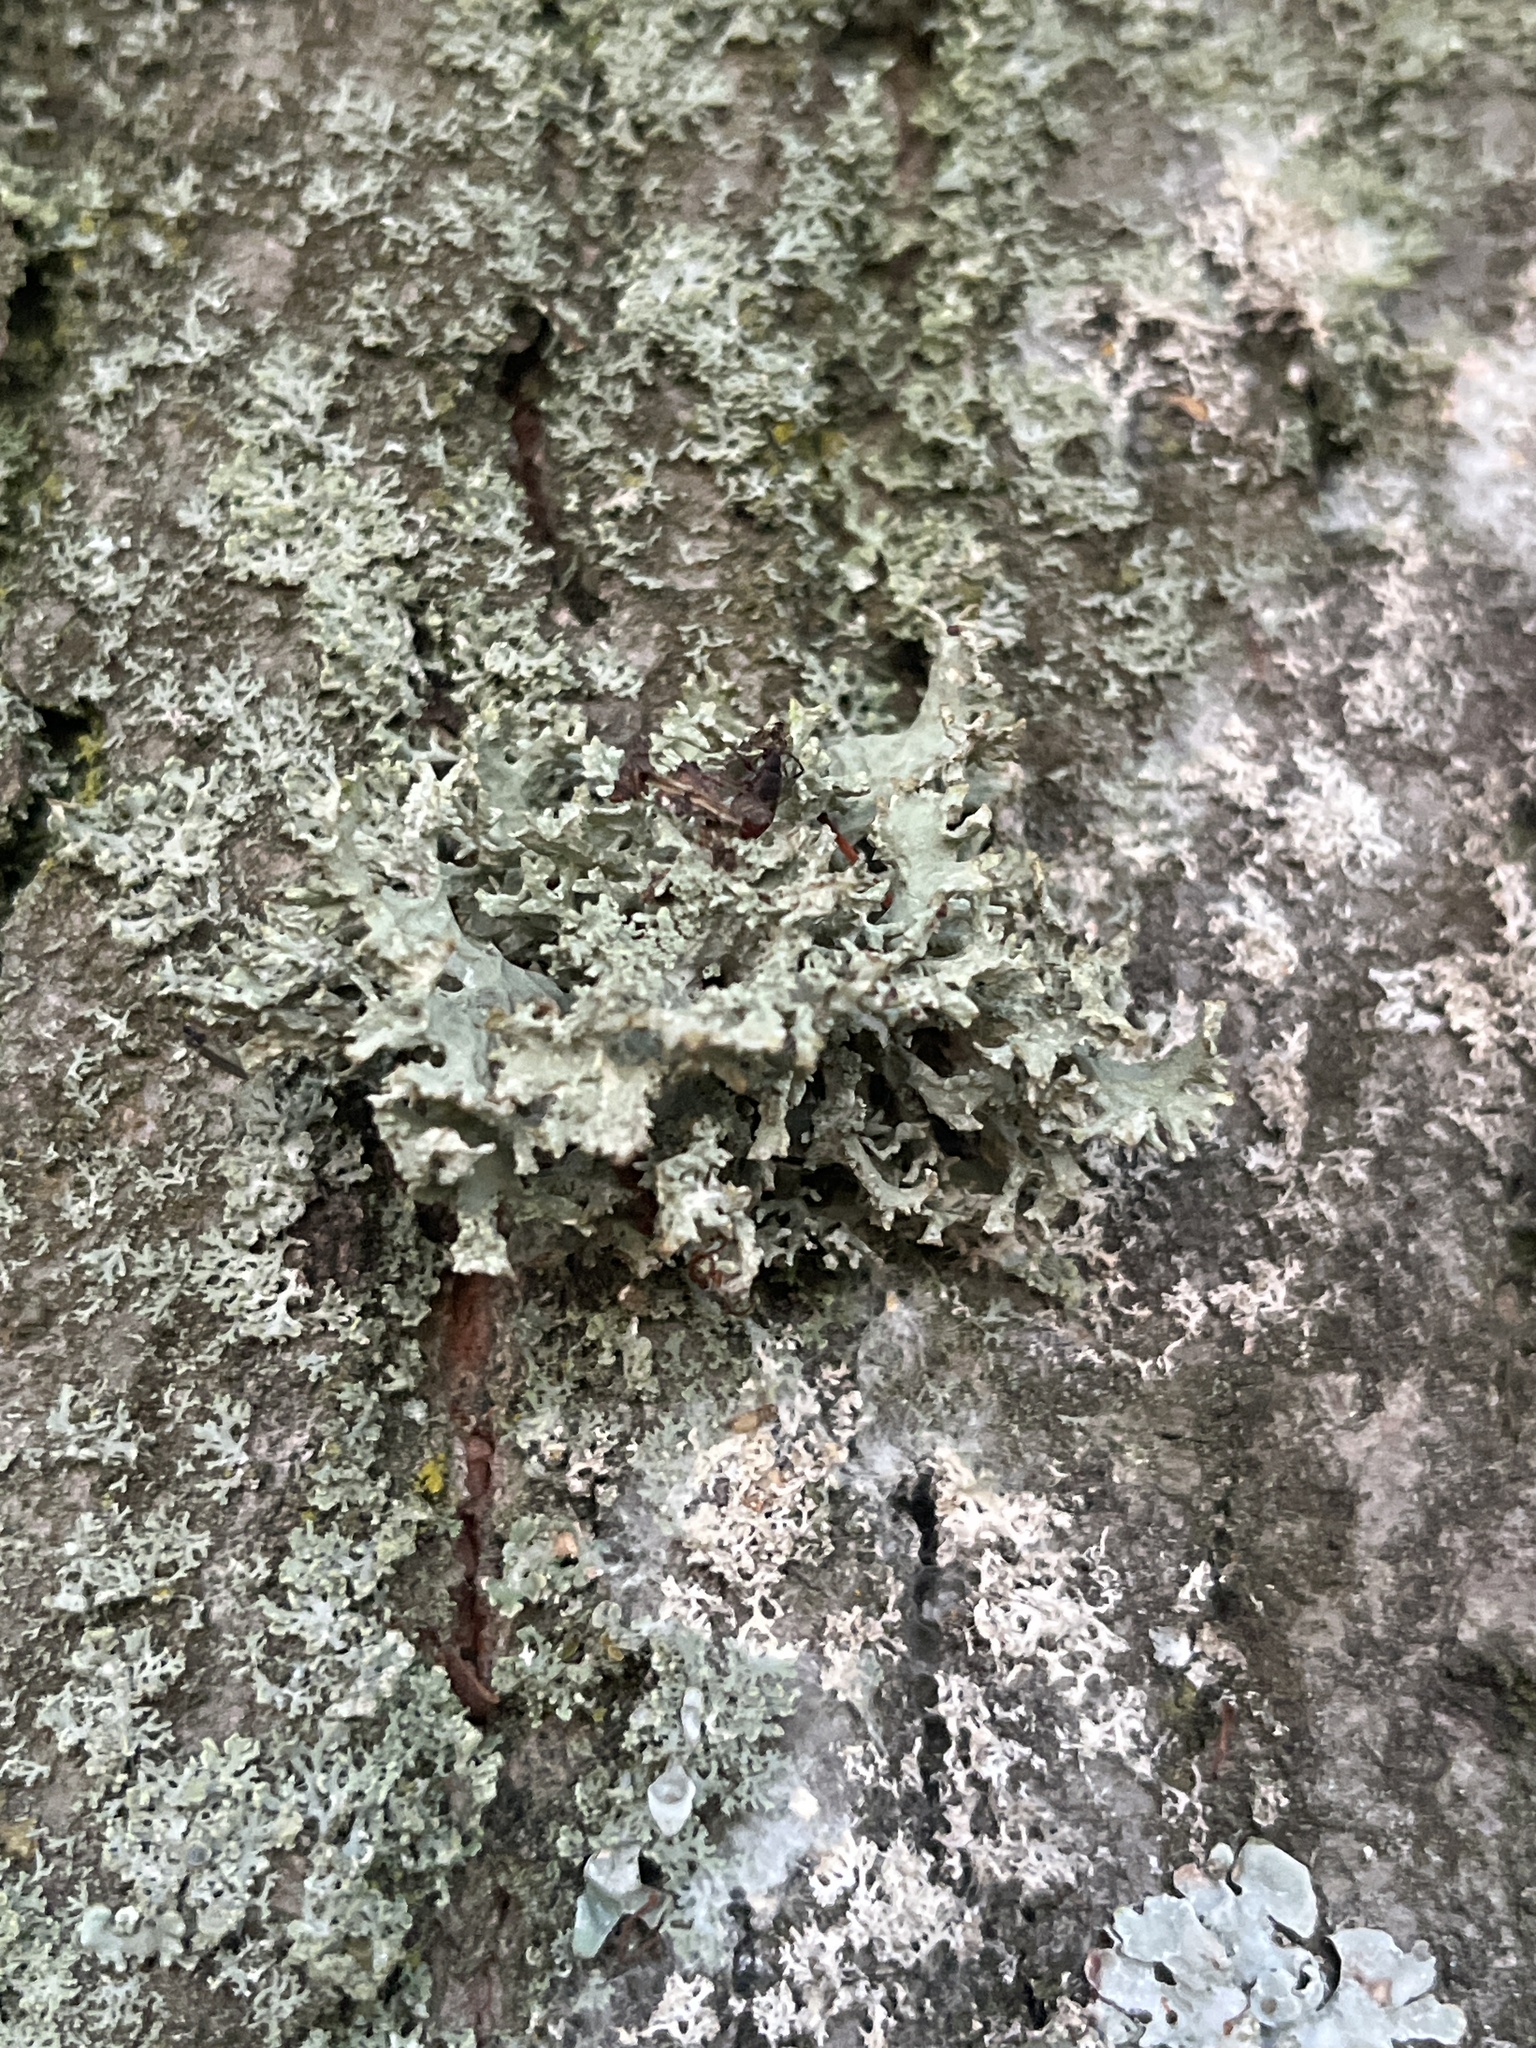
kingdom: Fungi
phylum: Ascomycota
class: Lecanoromycetes
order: Lecanorales
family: Parmeliaceae
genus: Evernia
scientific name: Evernia prunastri
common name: Oak moss
